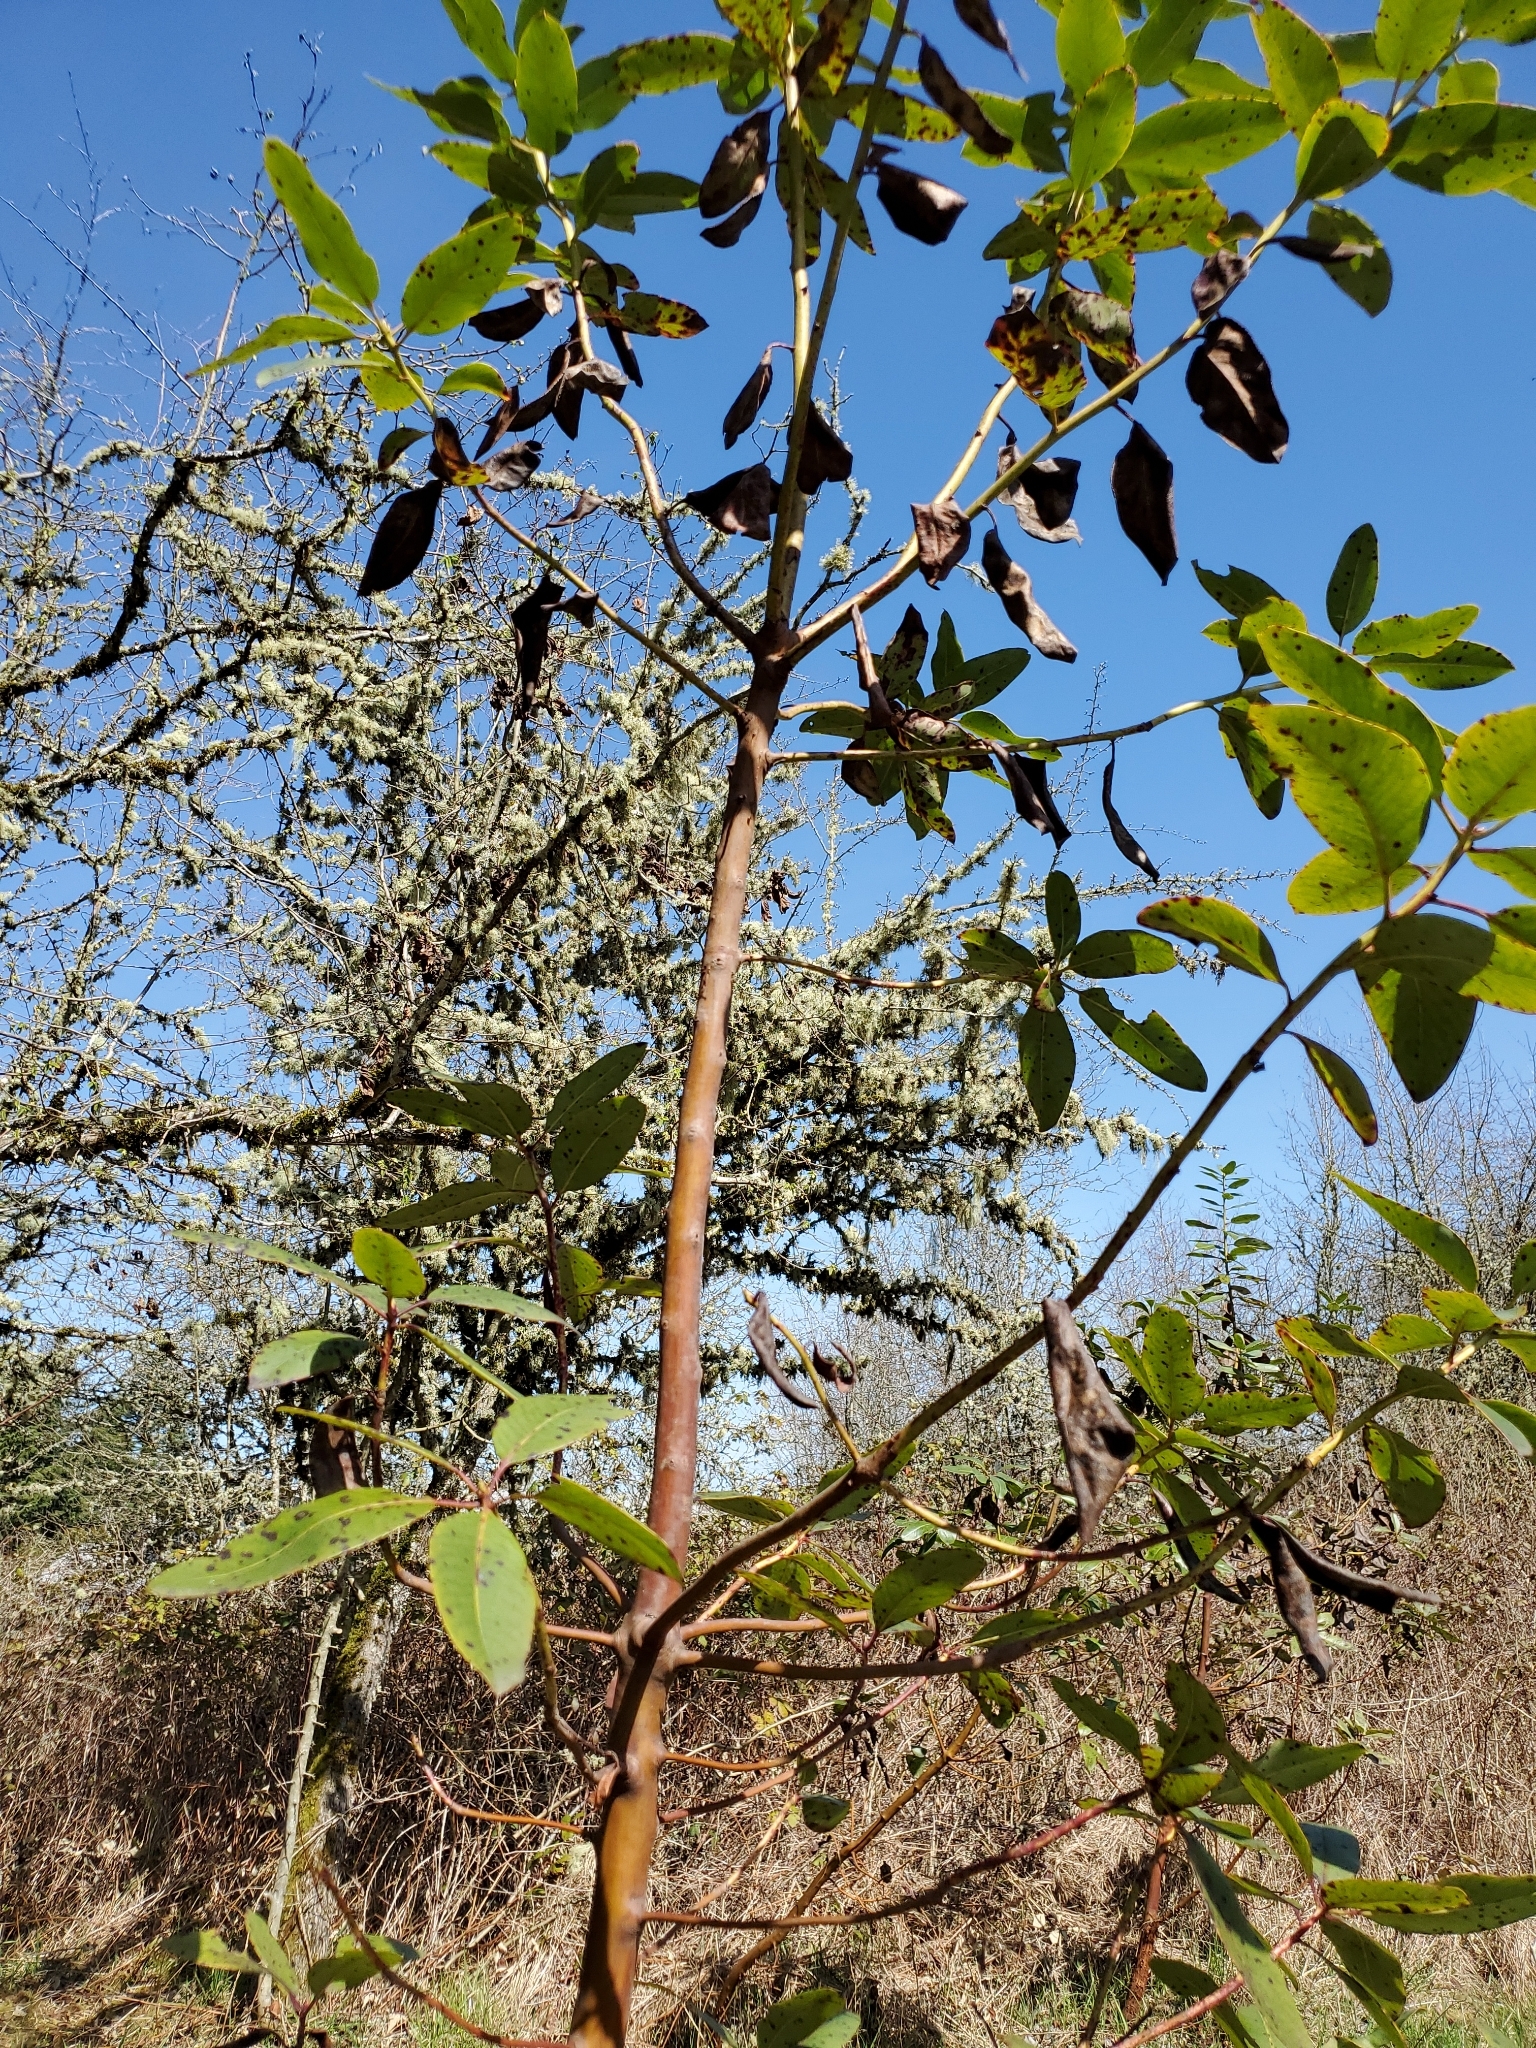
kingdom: Plantae
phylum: Tracheophyta
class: Magnoliopsida
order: Ericales
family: Ericaceae
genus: Arbutus
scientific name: Arbutus menziesii
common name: Pacific madrone
